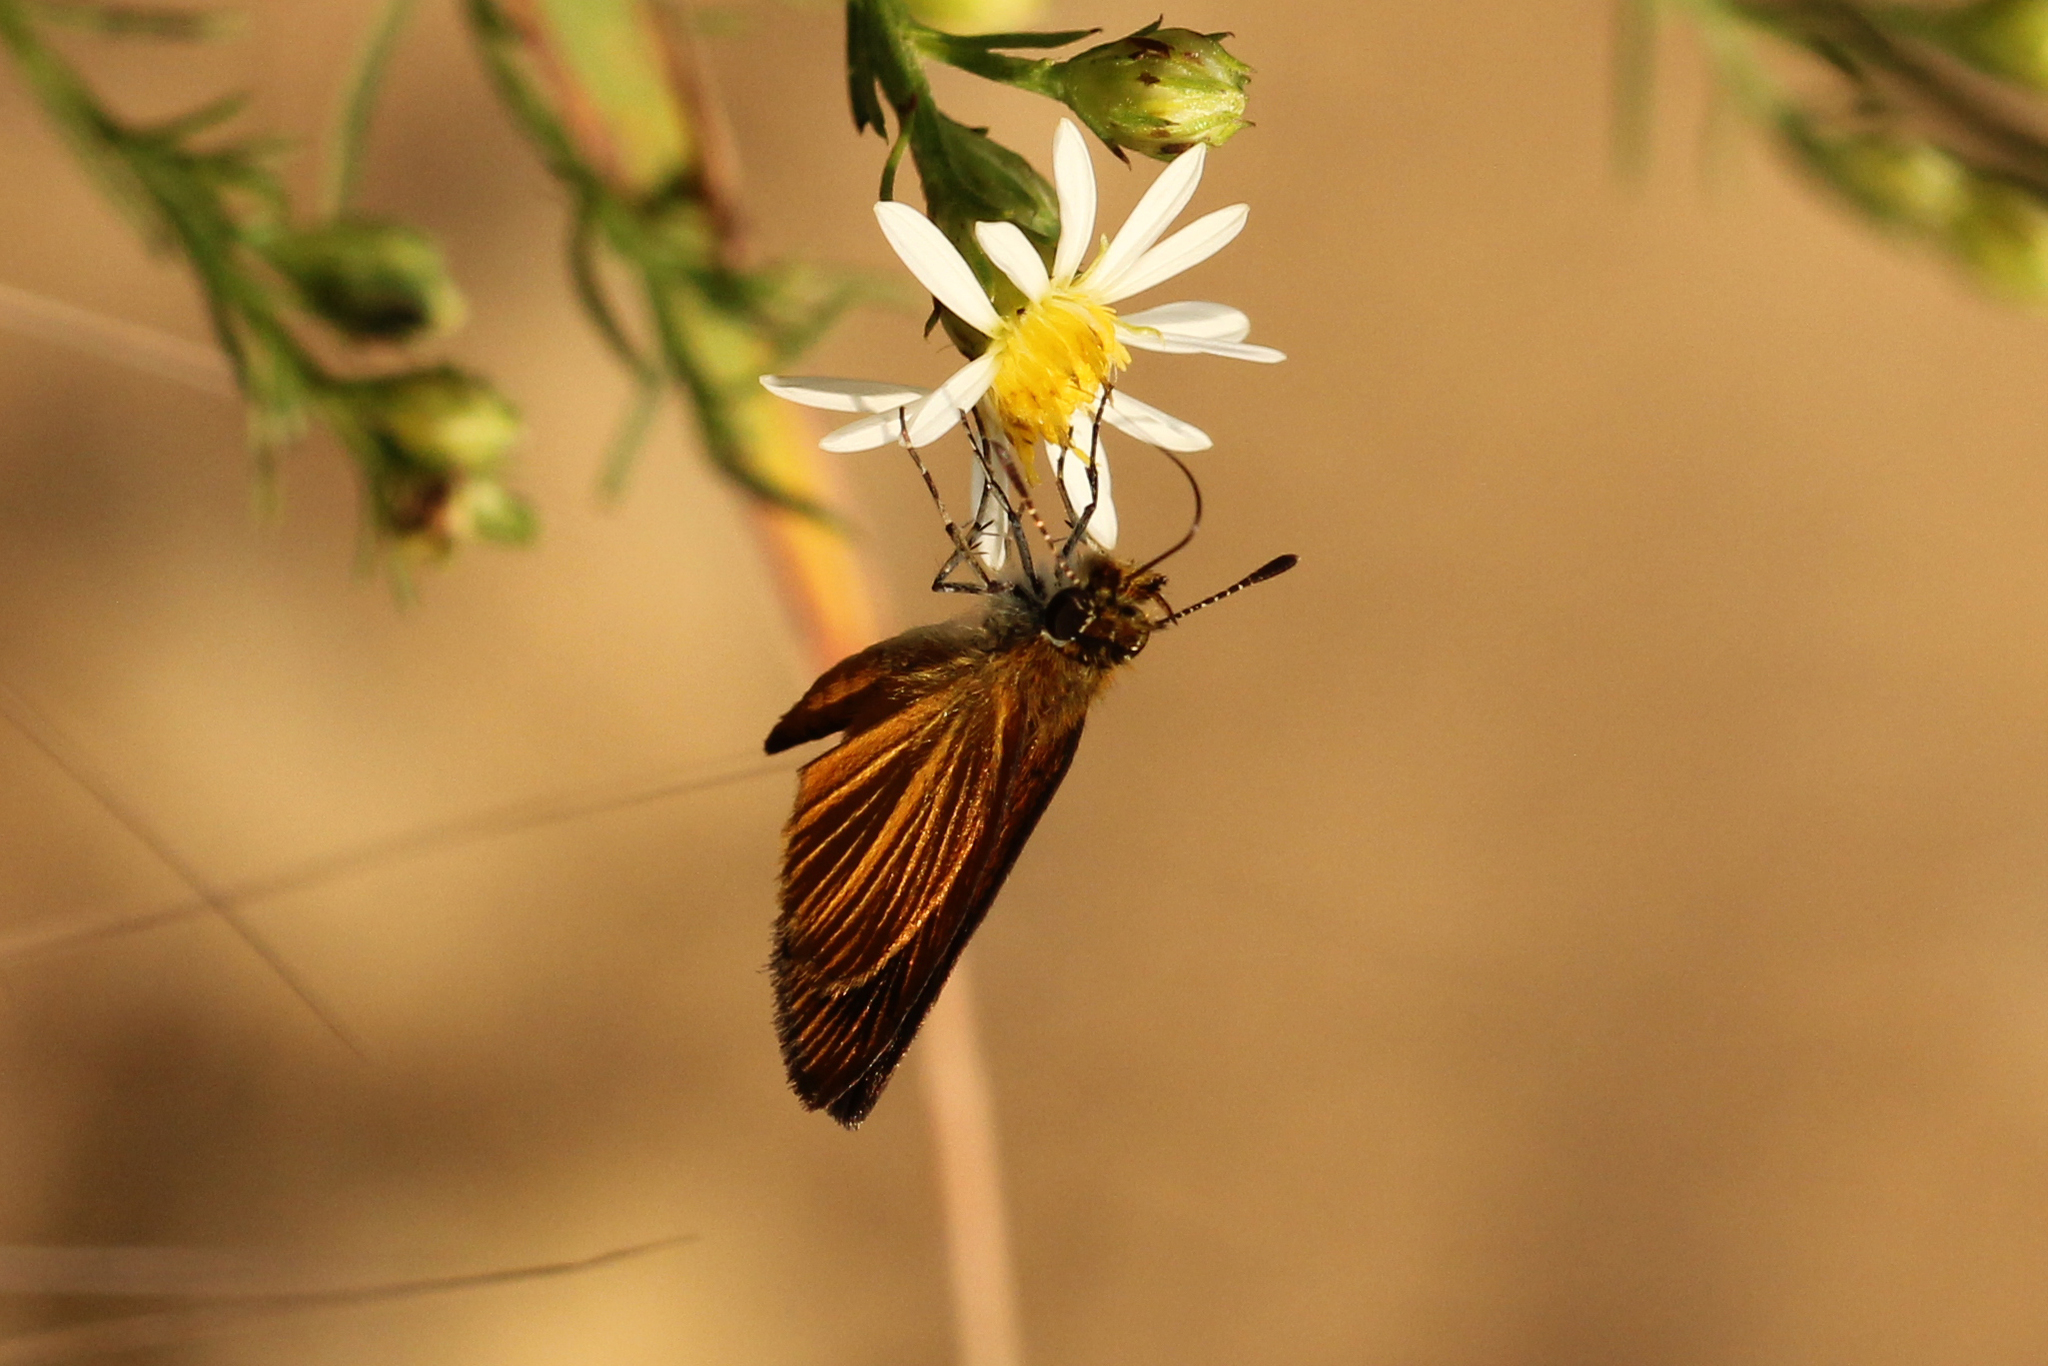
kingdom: Animalia
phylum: Arthropoda
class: Insecta
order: Lepidoptera
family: Hesperiidae
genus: Ancyloxypha
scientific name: Ancyloxypha numitor
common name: Least skipper
